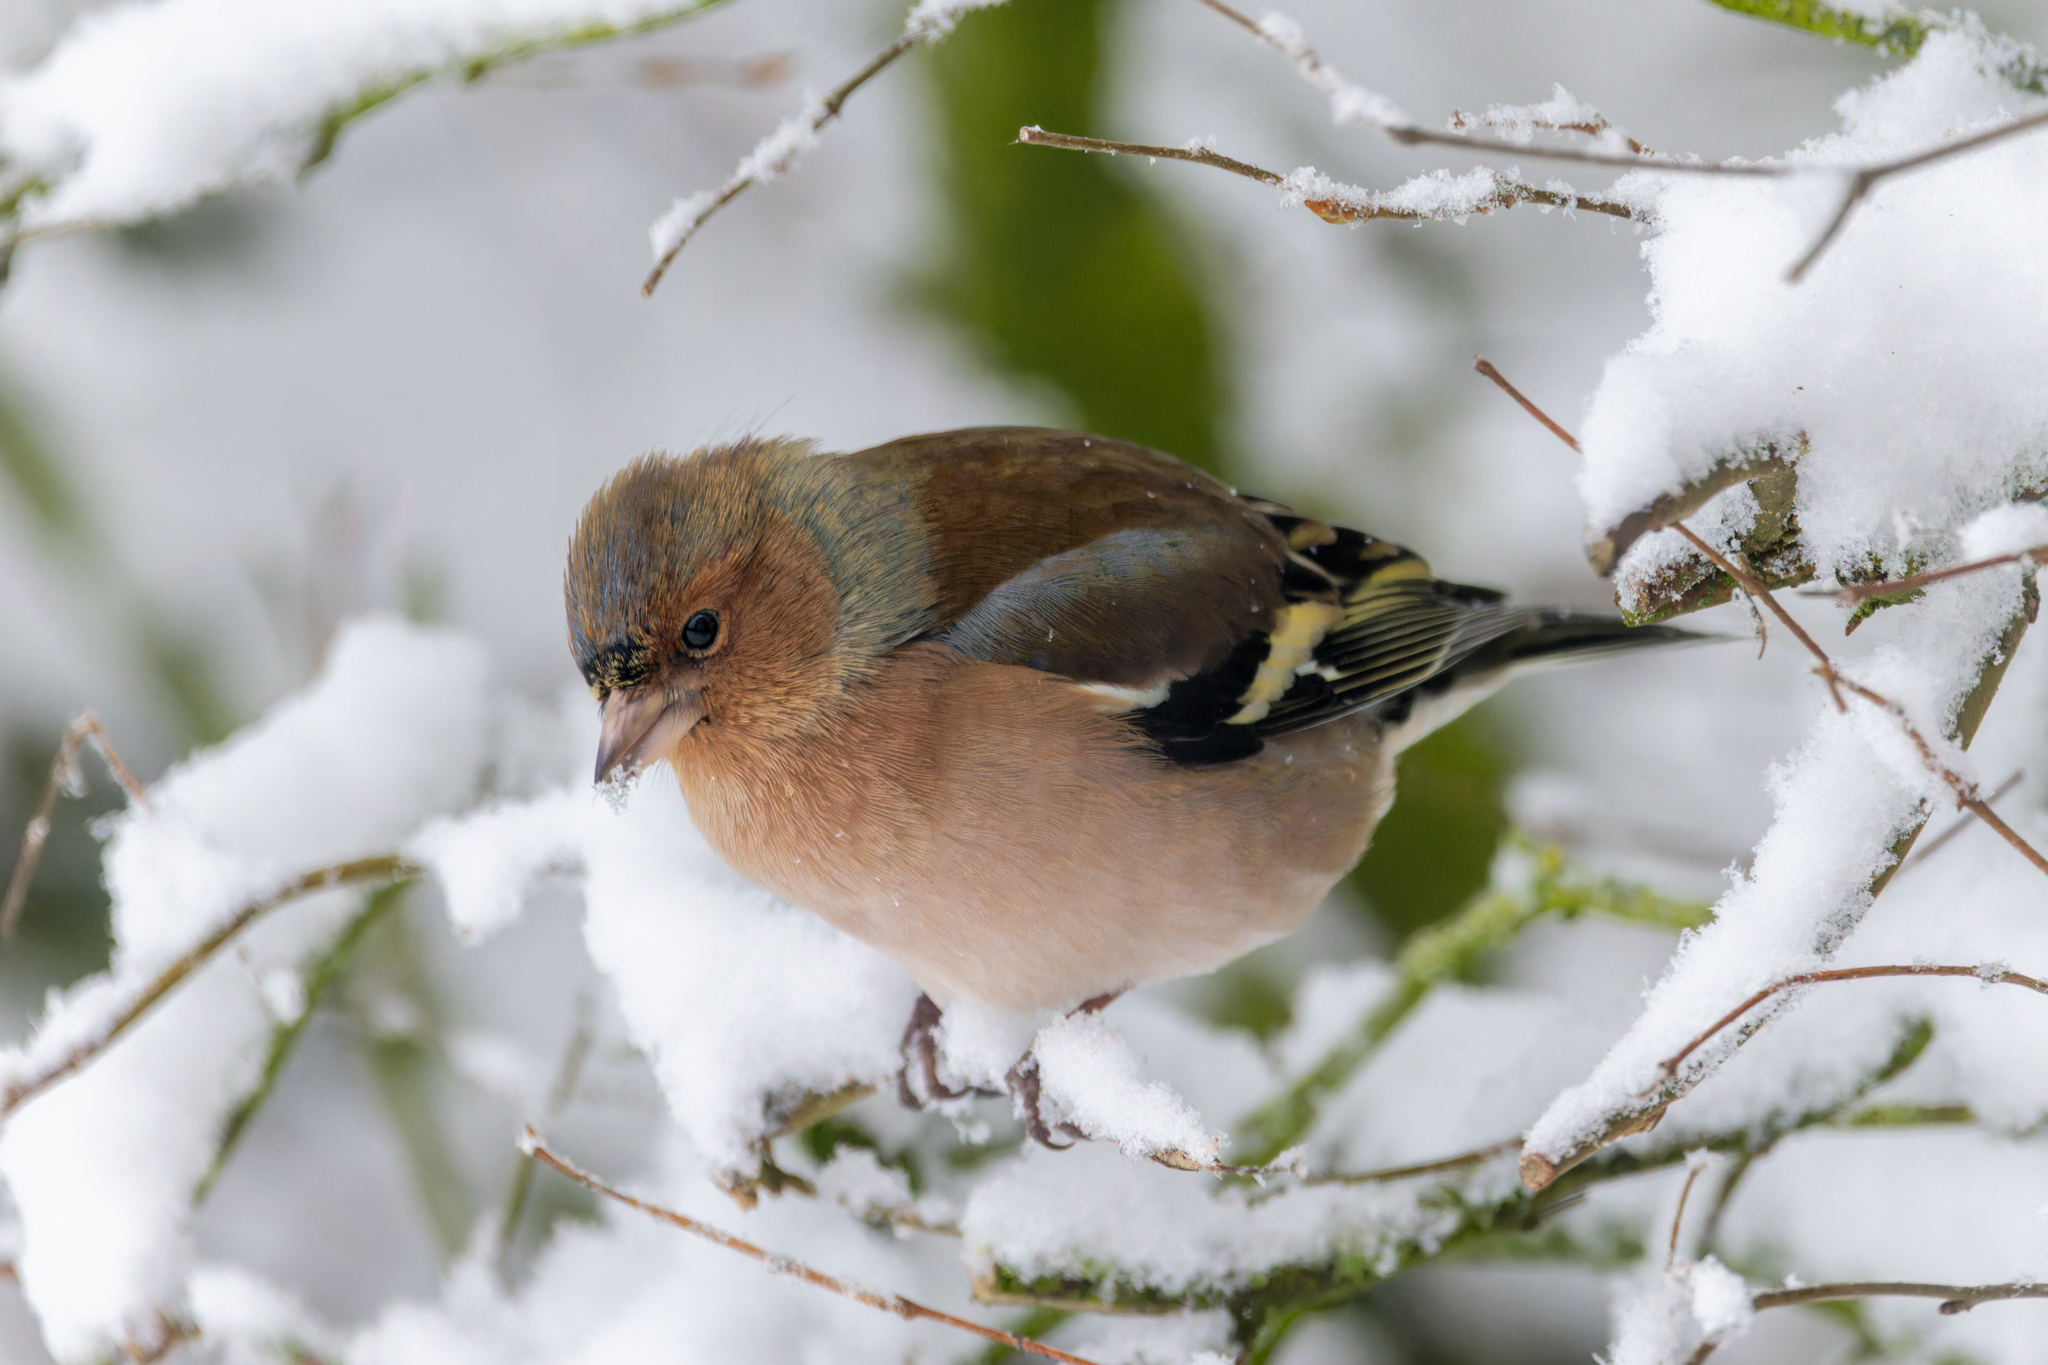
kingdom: Animalia
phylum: Chordata
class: Aves
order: Passeriformes
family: Fringillidae
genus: Fringilla
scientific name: Fringilla coelebs
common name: Common chaffinch
